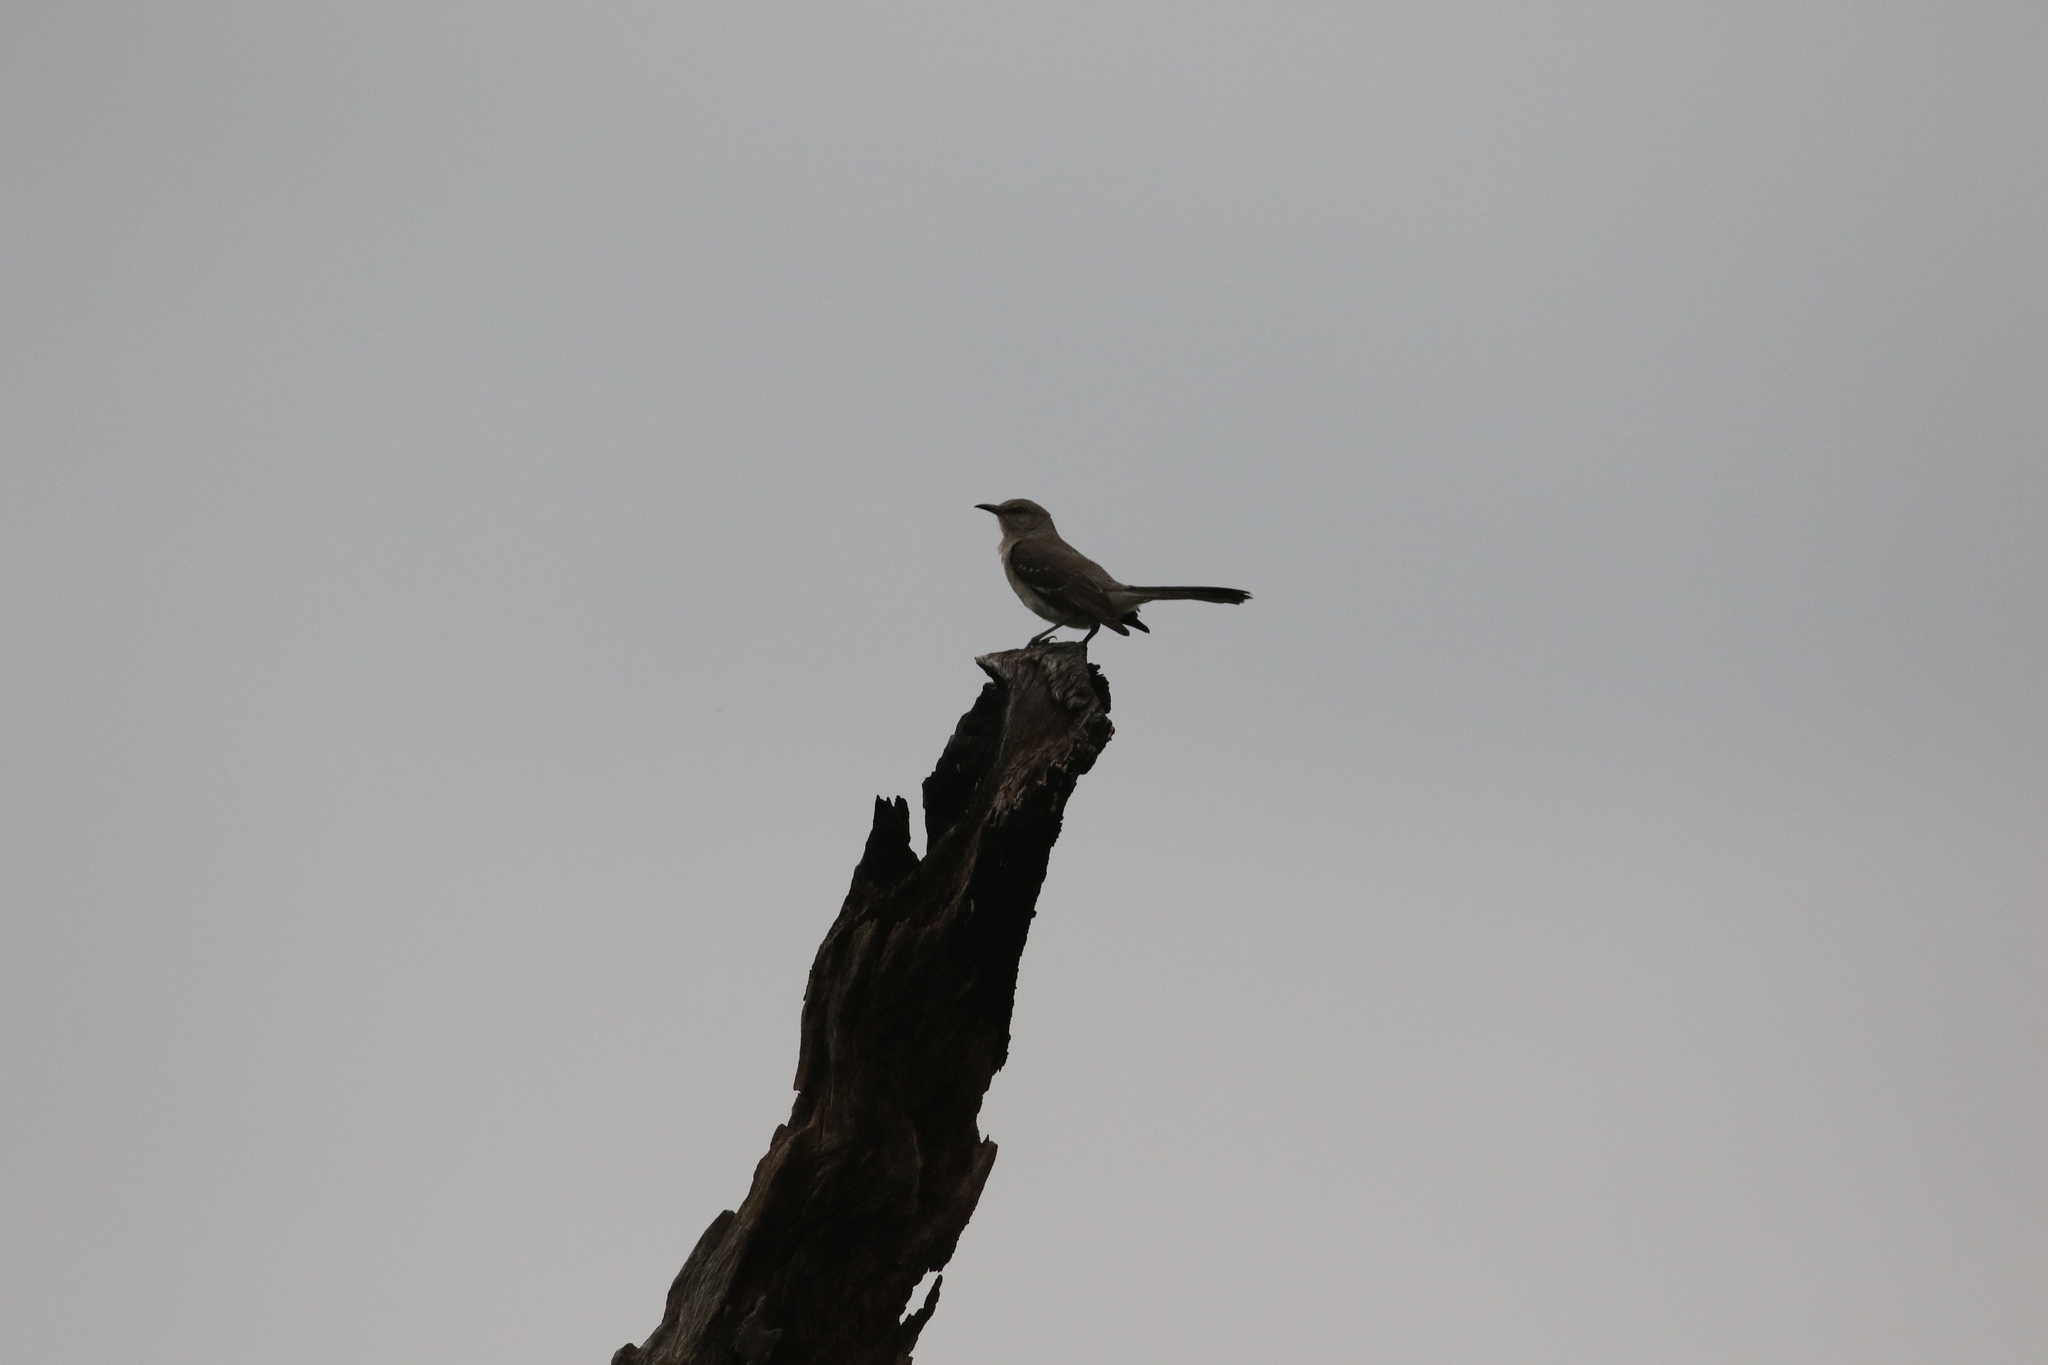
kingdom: Animalia
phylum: Chordata
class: Aves
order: Passeriformes
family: Mimidae
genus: Mimus
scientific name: Mimus polyglottos
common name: Northern mockingbird
